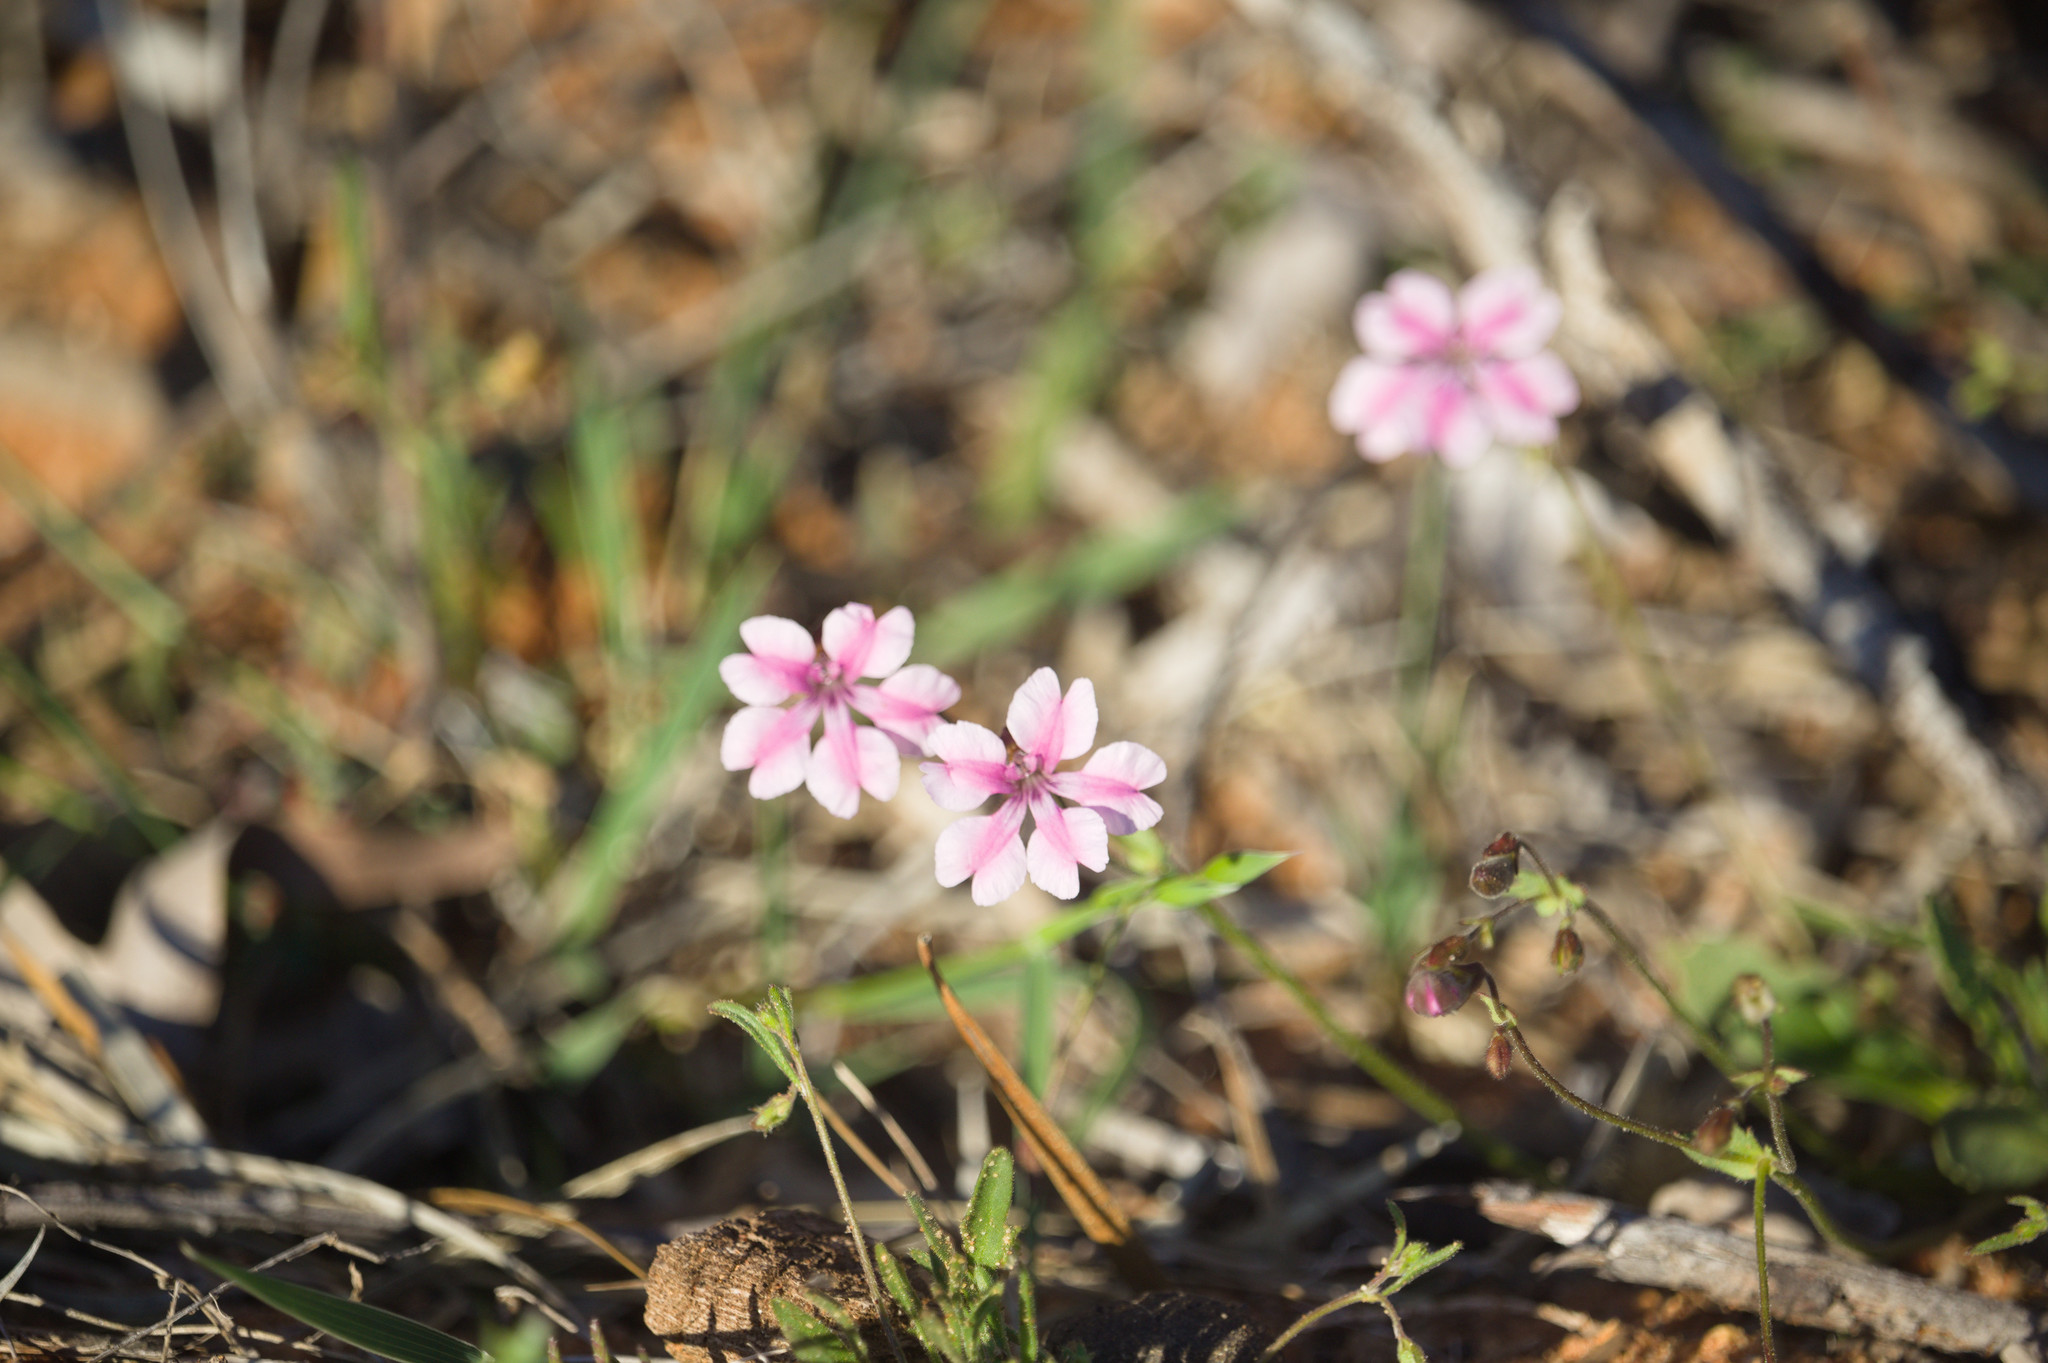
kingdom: Plantae
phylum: Tracheophyta
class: Magnoliopsida
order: Asterales
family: Goodeniaceae
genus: Goodenia
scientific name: Goodenia rosea
